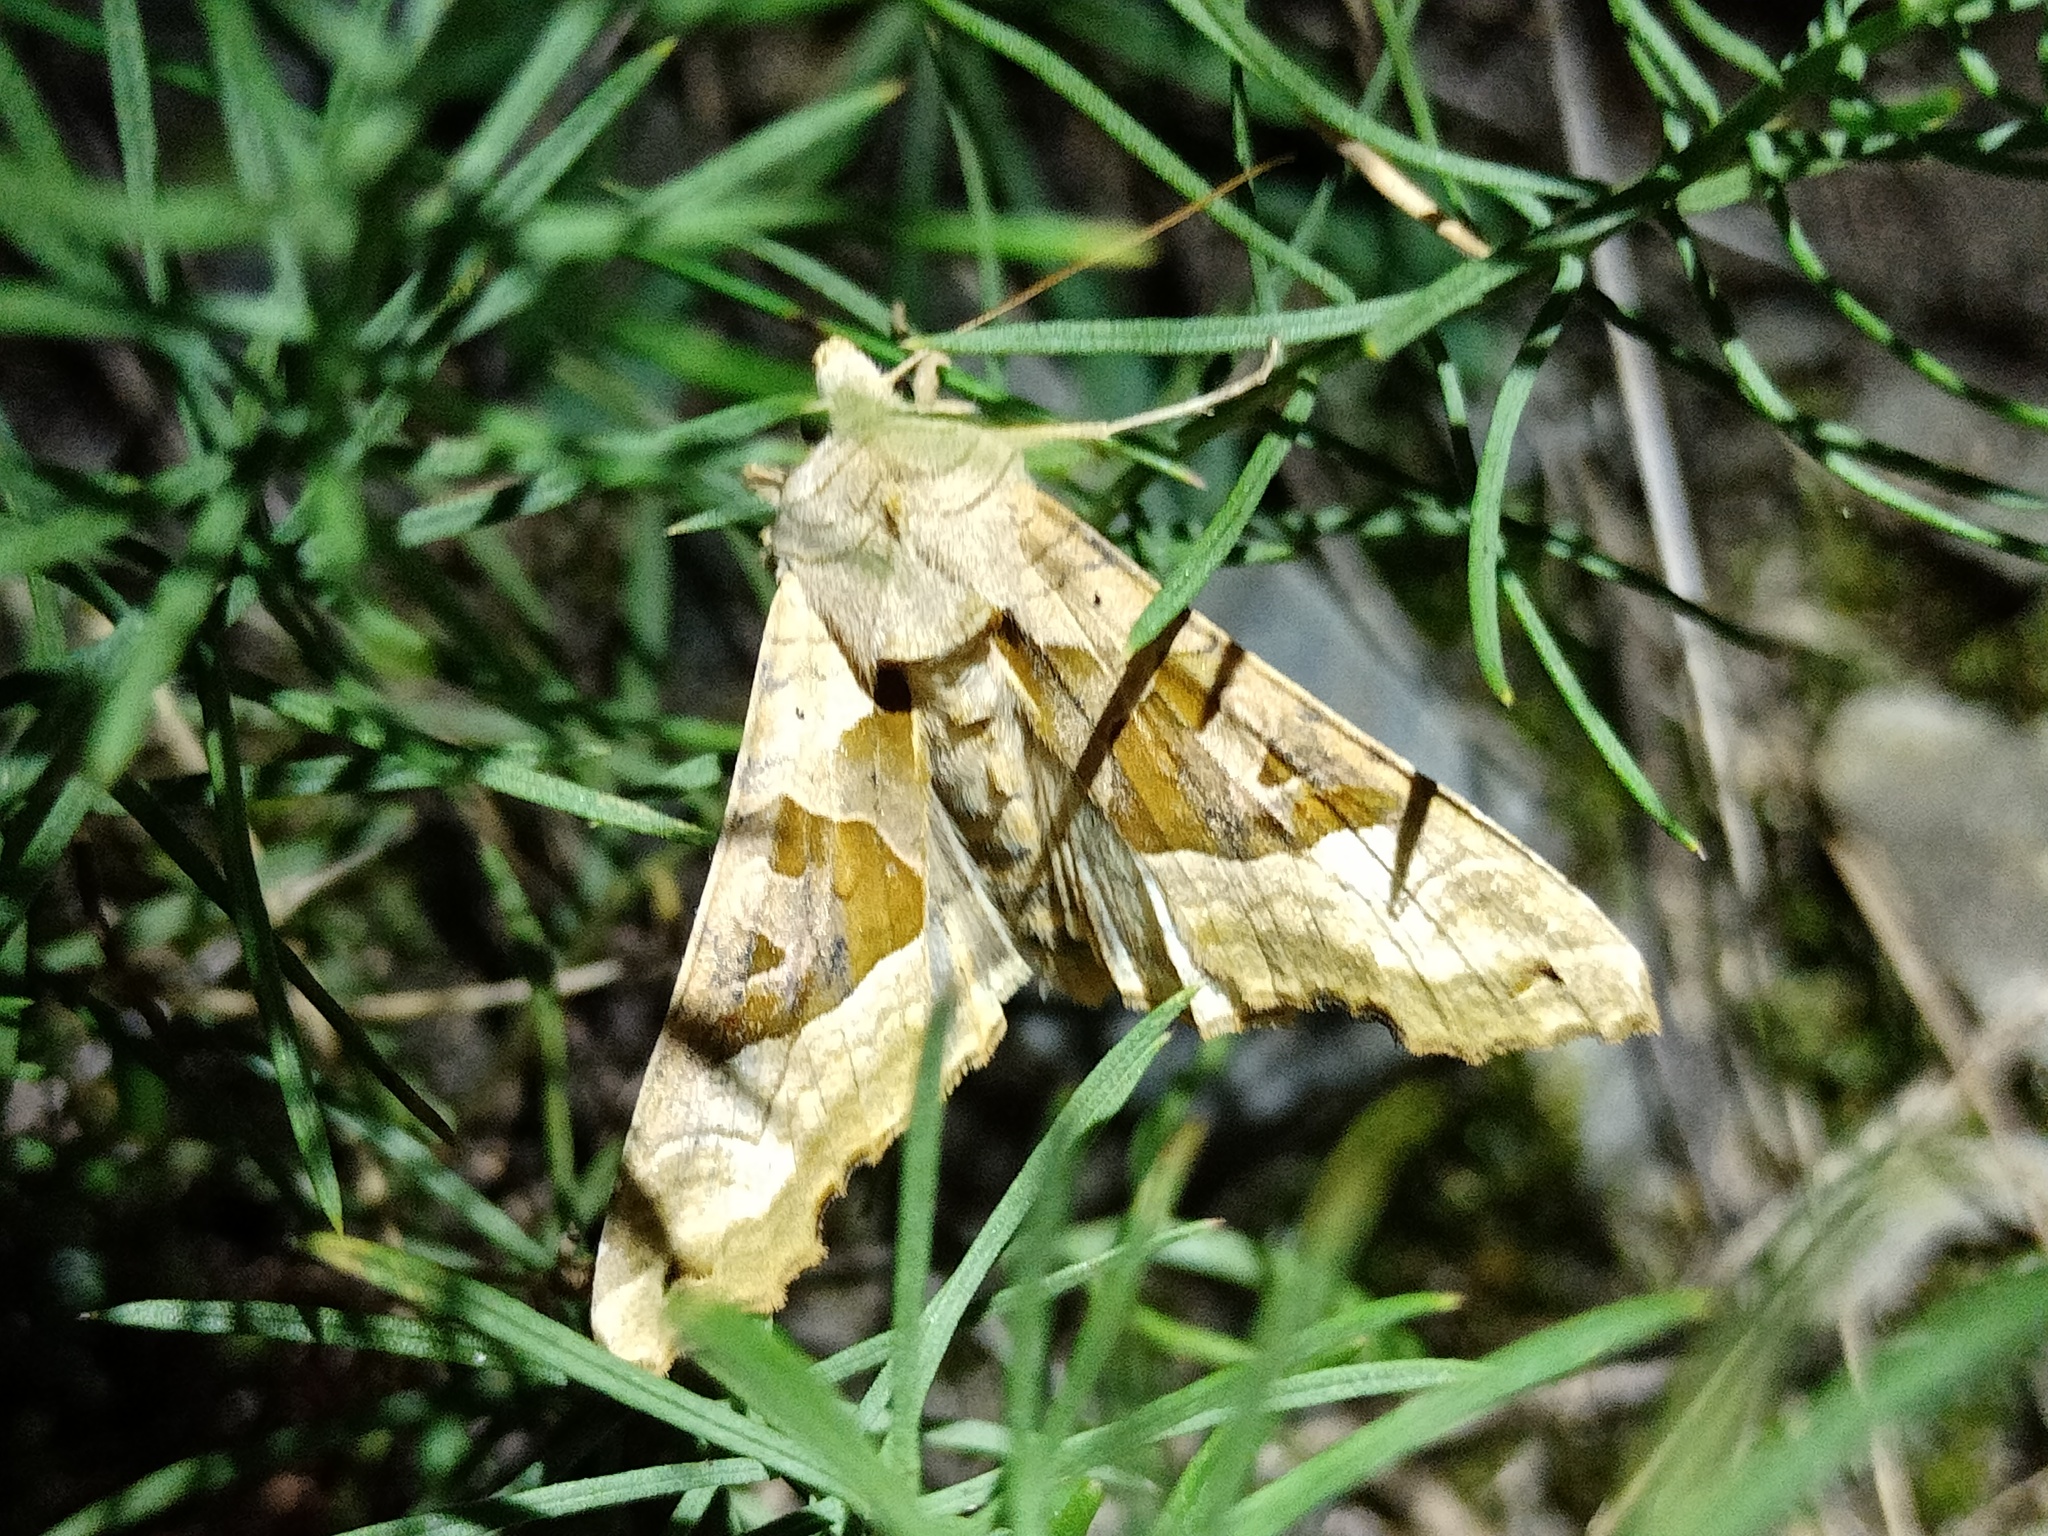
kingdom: Animalia
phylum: Arthropoda
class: Insecta
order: Lepidoptera
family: Noctuidae
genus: Phlogophora
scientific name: Phlogophora meticulosa
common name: Angle shades
